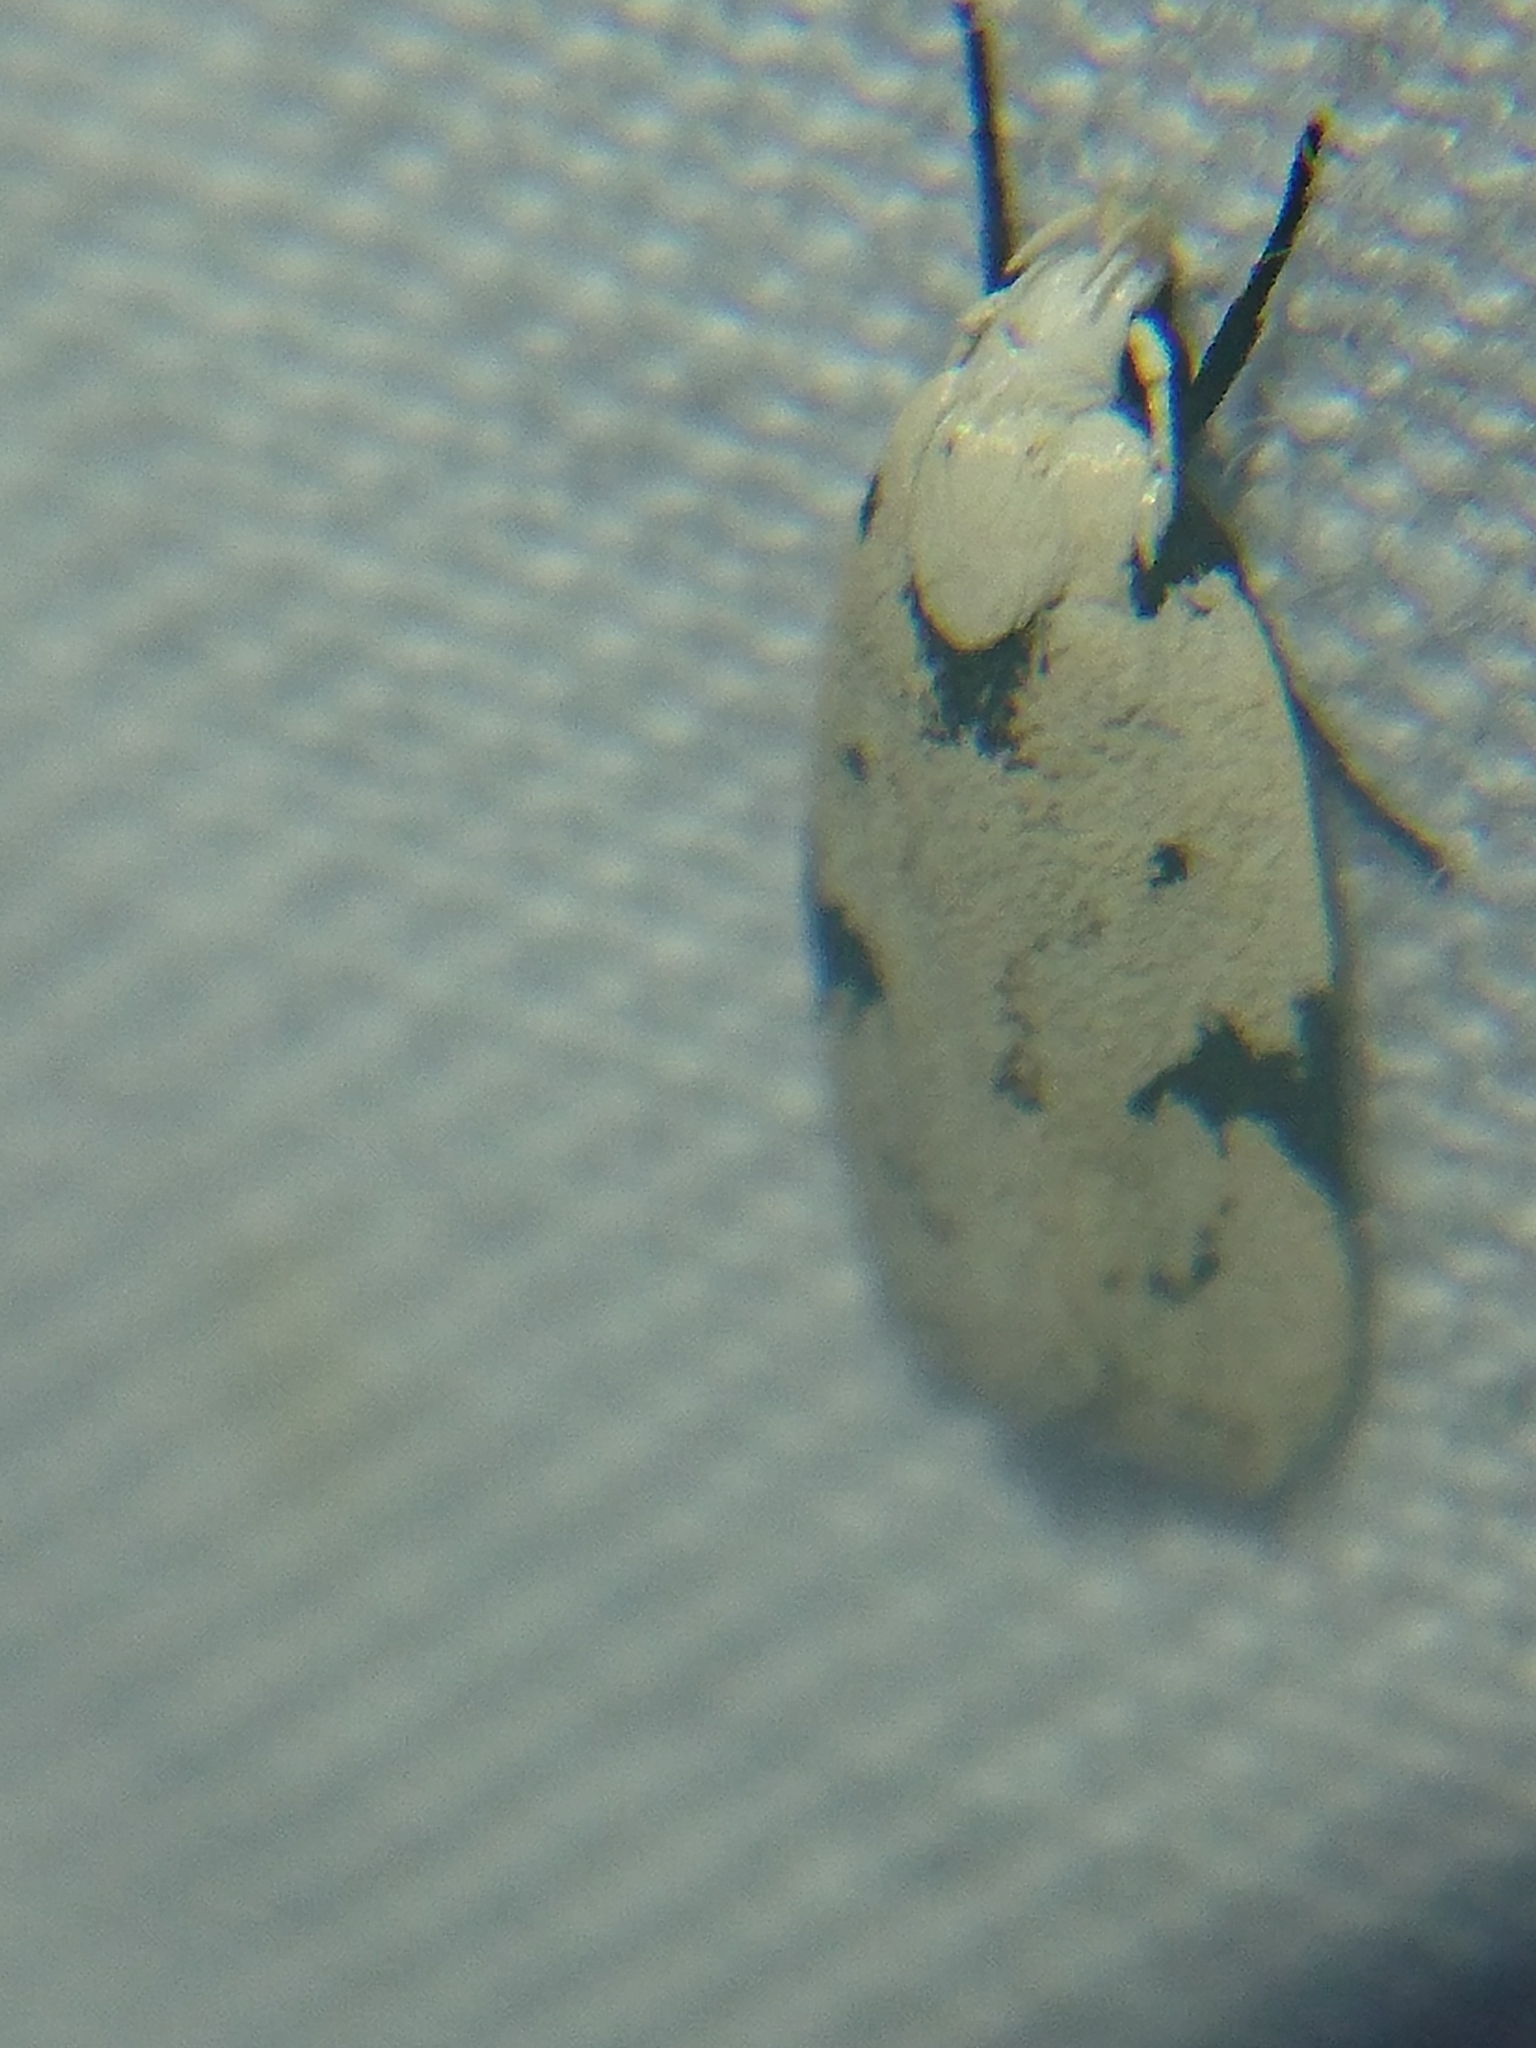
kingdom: Animalia
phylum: Arthropoda
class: Insecta
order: Lepidoptera
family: Oecophoridae
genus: Inga
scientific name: Inga sparsiciliella
